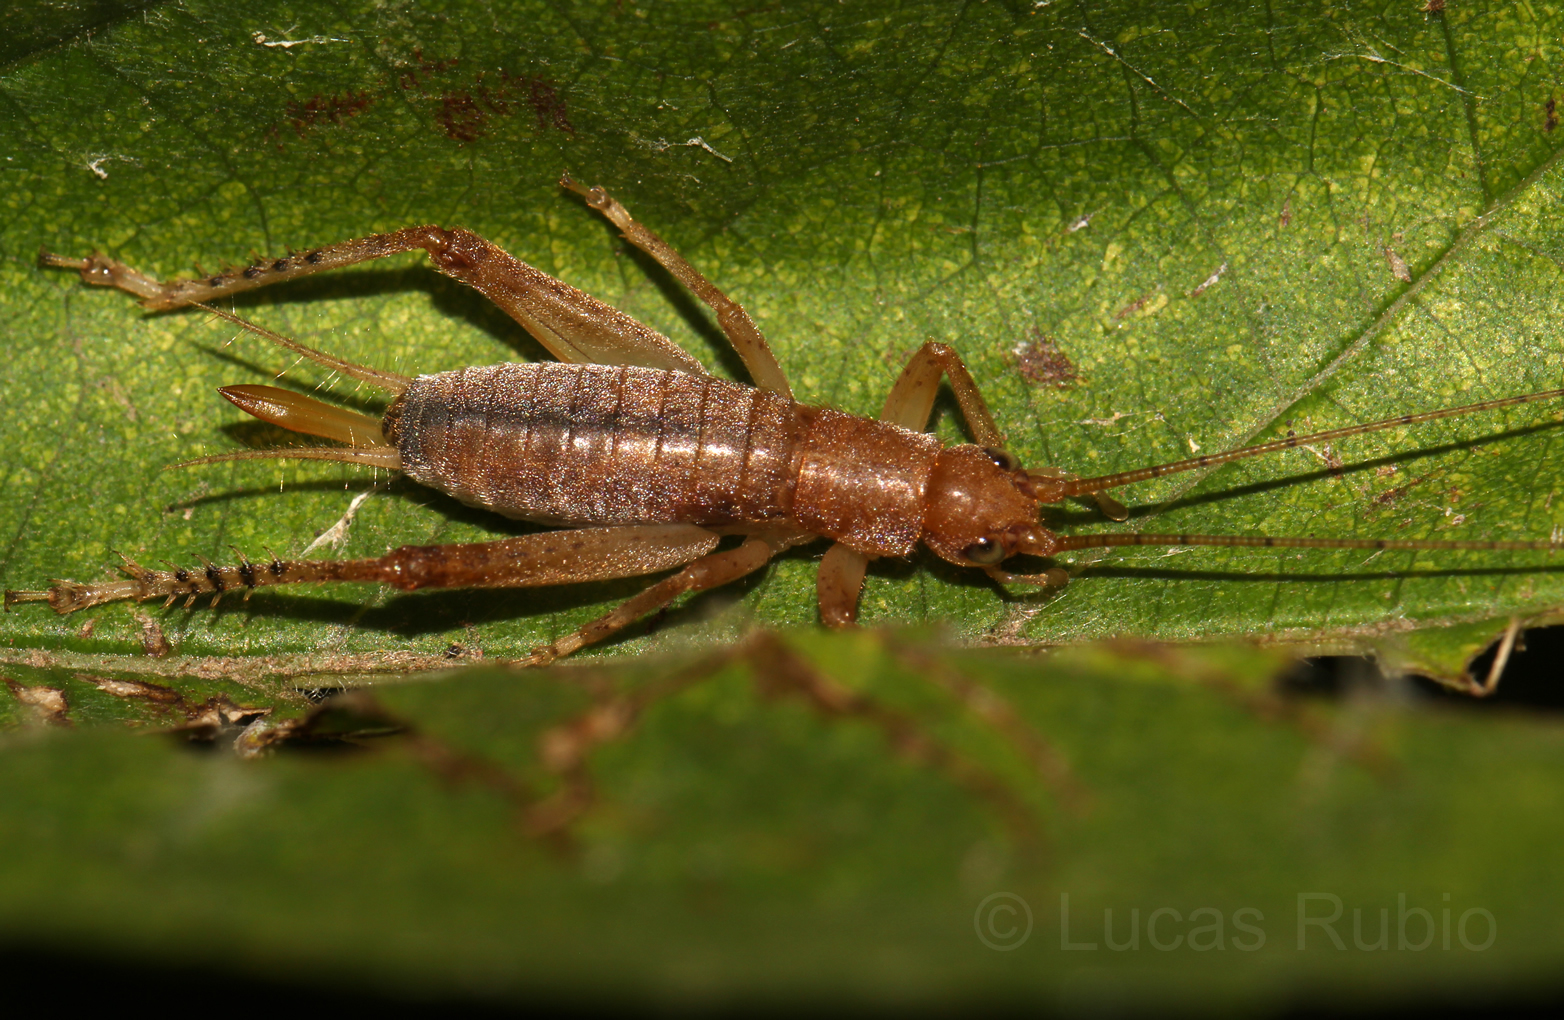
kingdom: Animalia
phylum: Arthropoda
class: Insecta
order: Orthoptera
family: Gryllidae
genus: Neometrypus
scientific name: Neometrypus aculeatus
